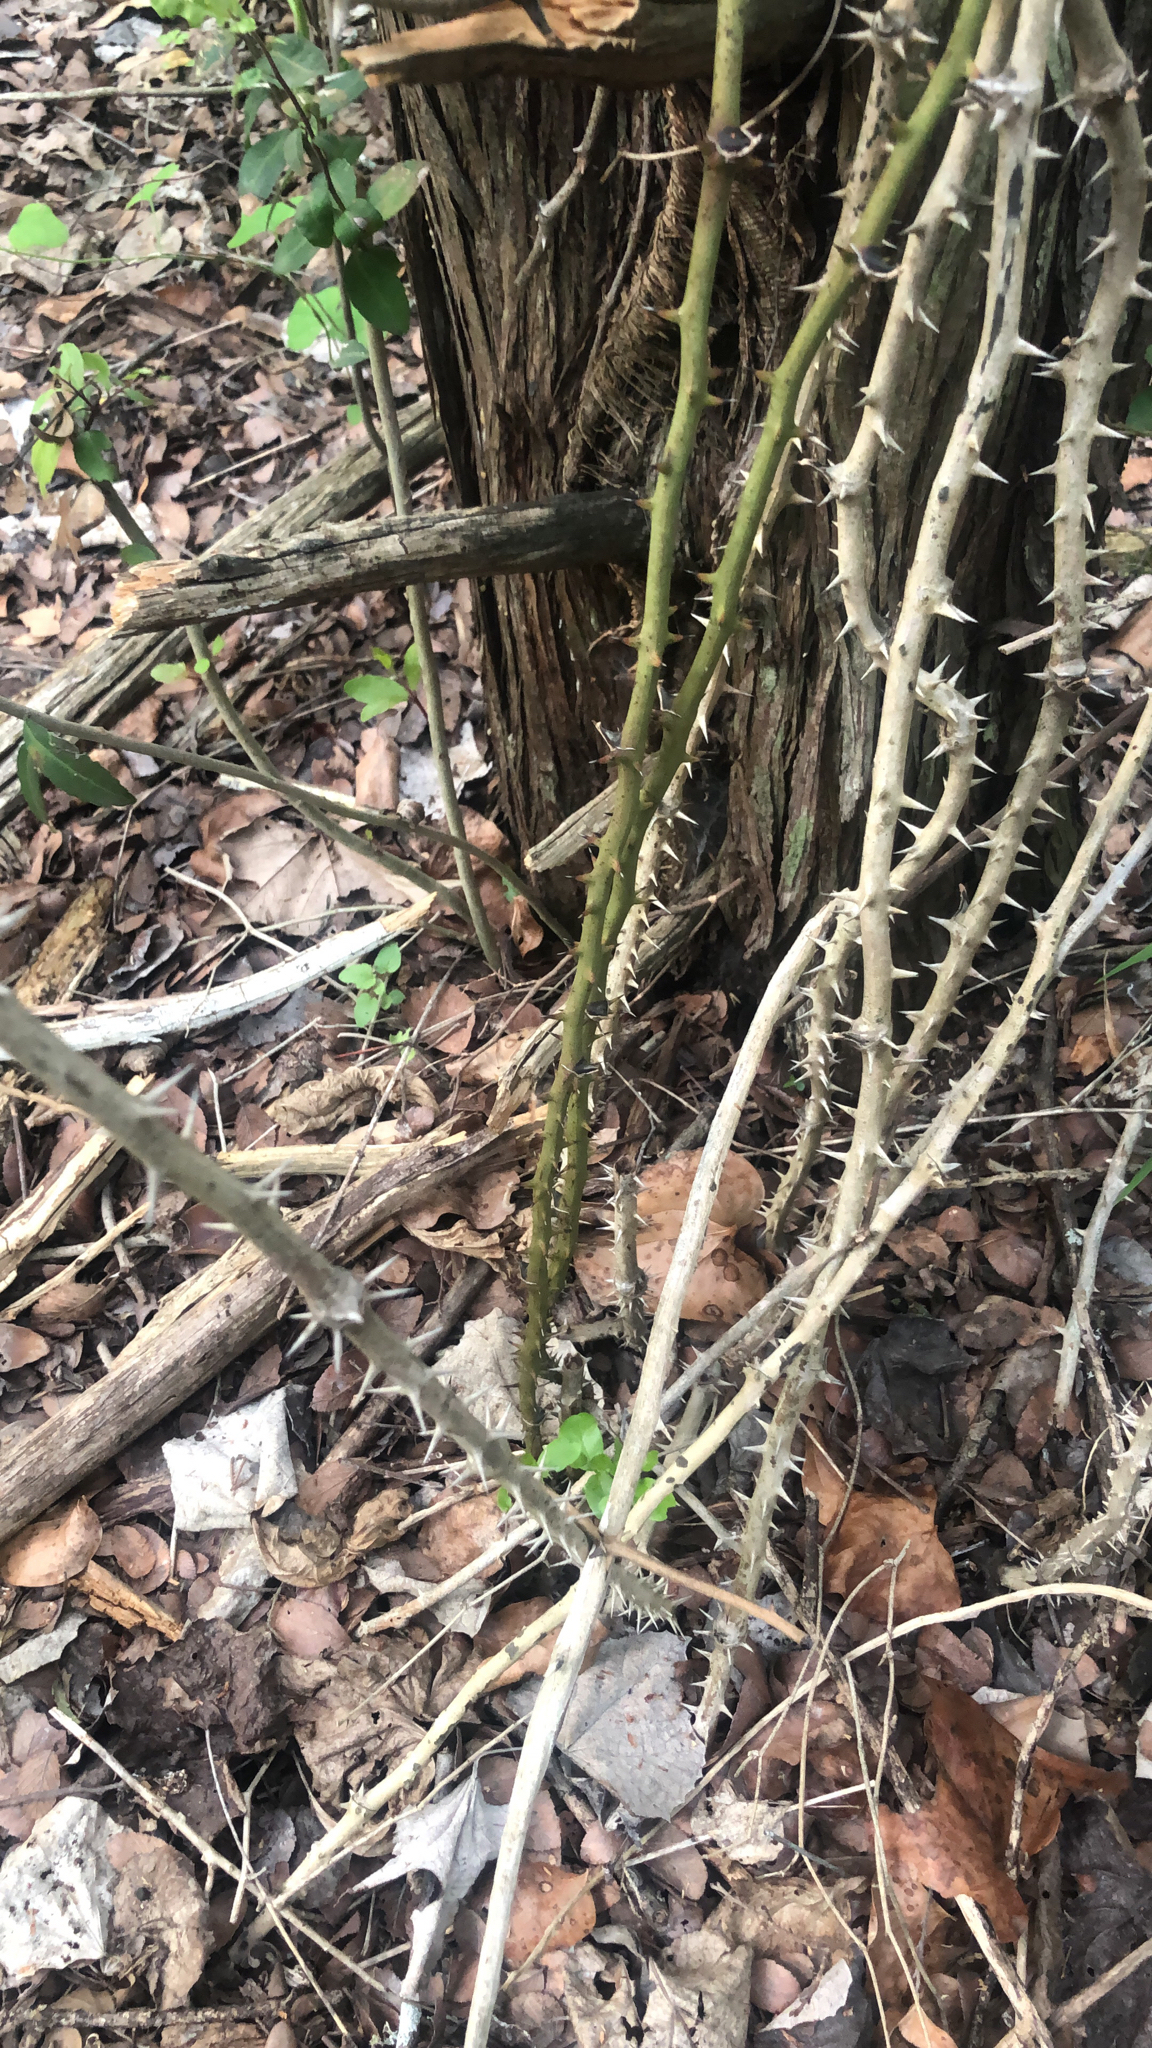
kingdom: Plantae
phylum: Tracheophyta
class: Liliopsida
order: Liliales
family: Smilacaceae
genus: Smilax
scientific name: Smilax tamnoides
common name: Hellfetter
